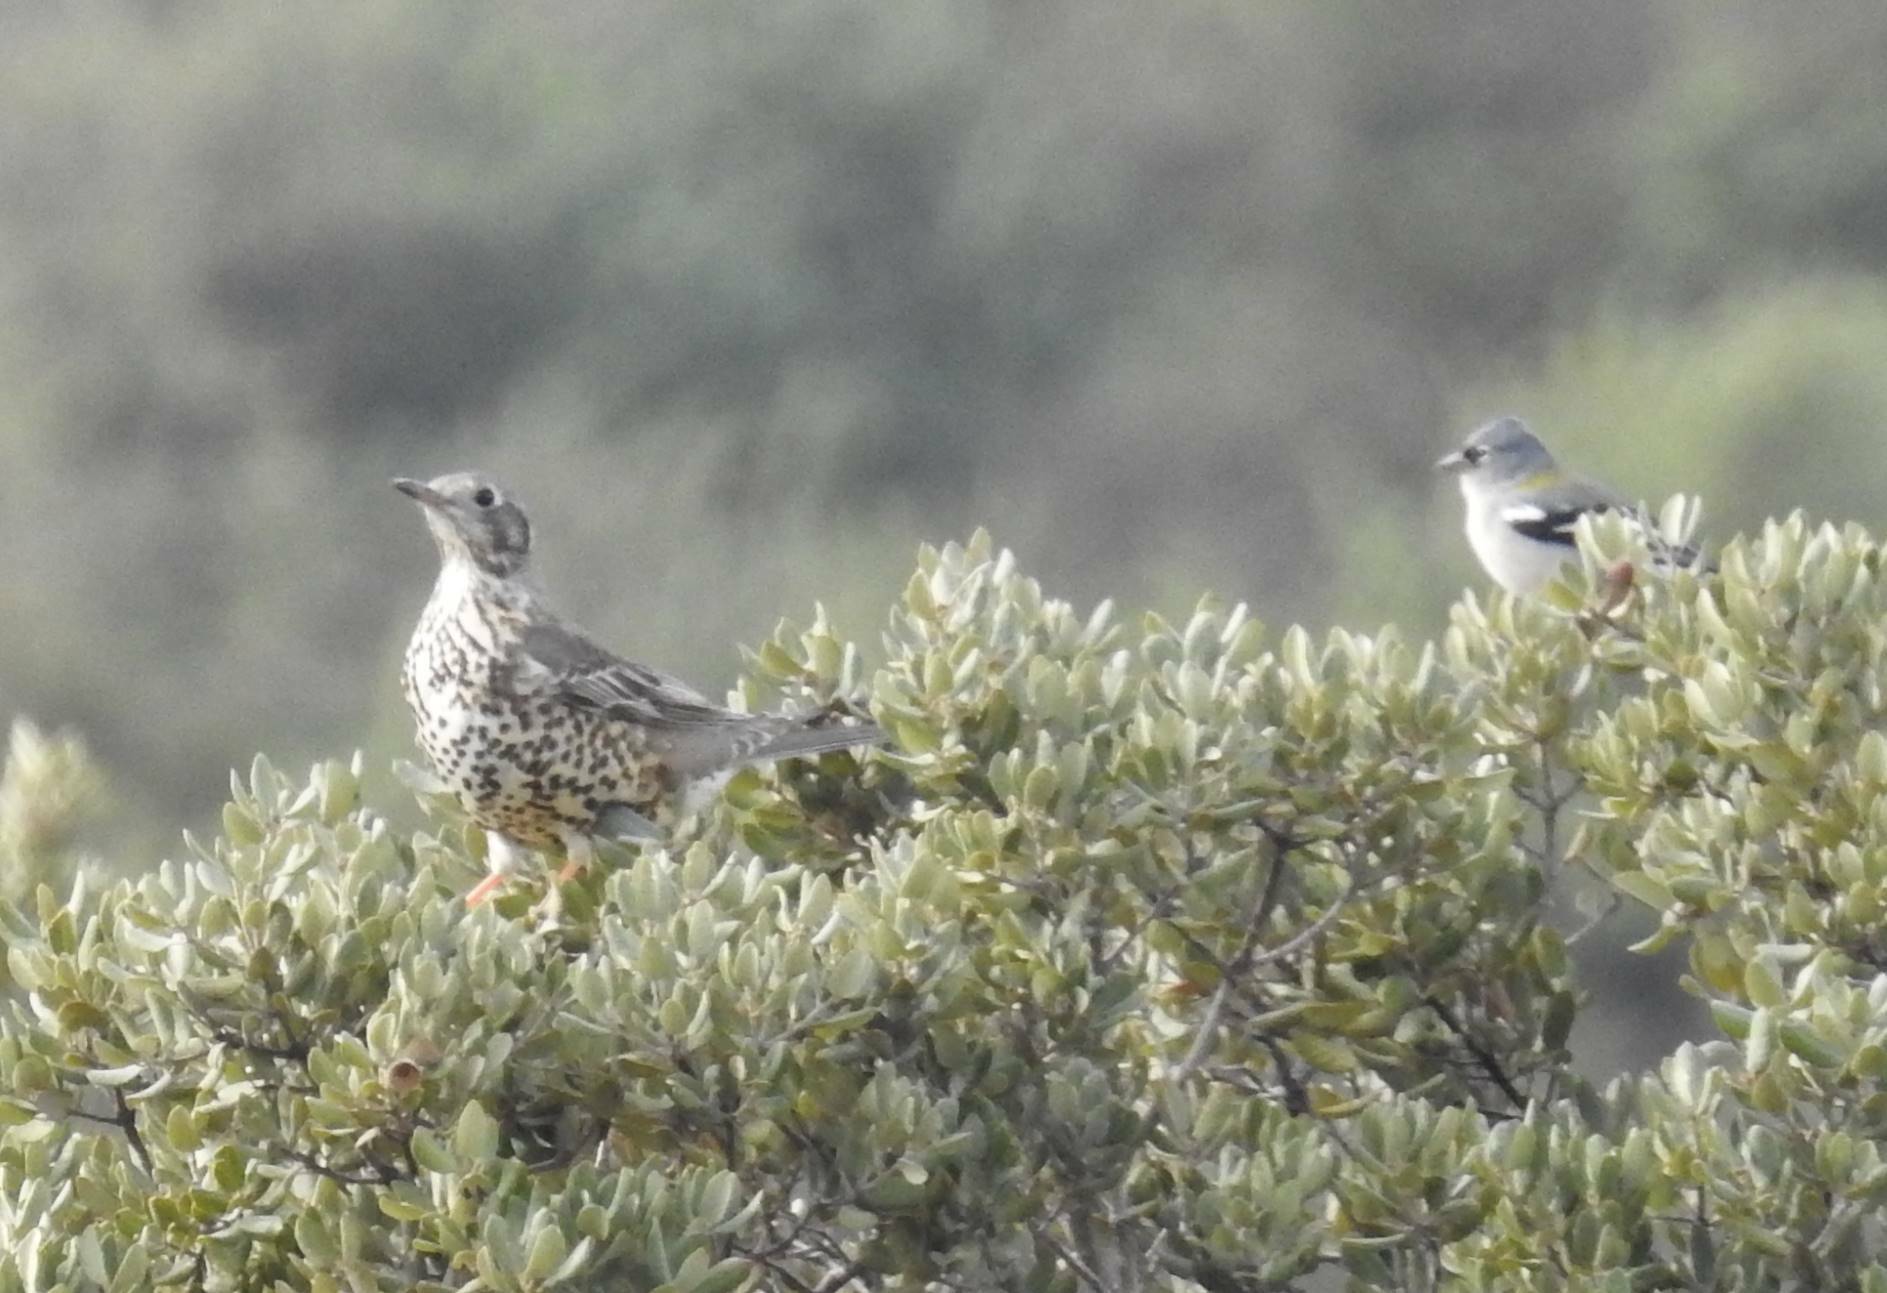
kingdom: Animalia
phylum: Chordata
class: Aves
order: Passeriformes
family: Turdidae
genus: Turdus
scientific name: Turdus viscivorus
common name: Mistle thrush
